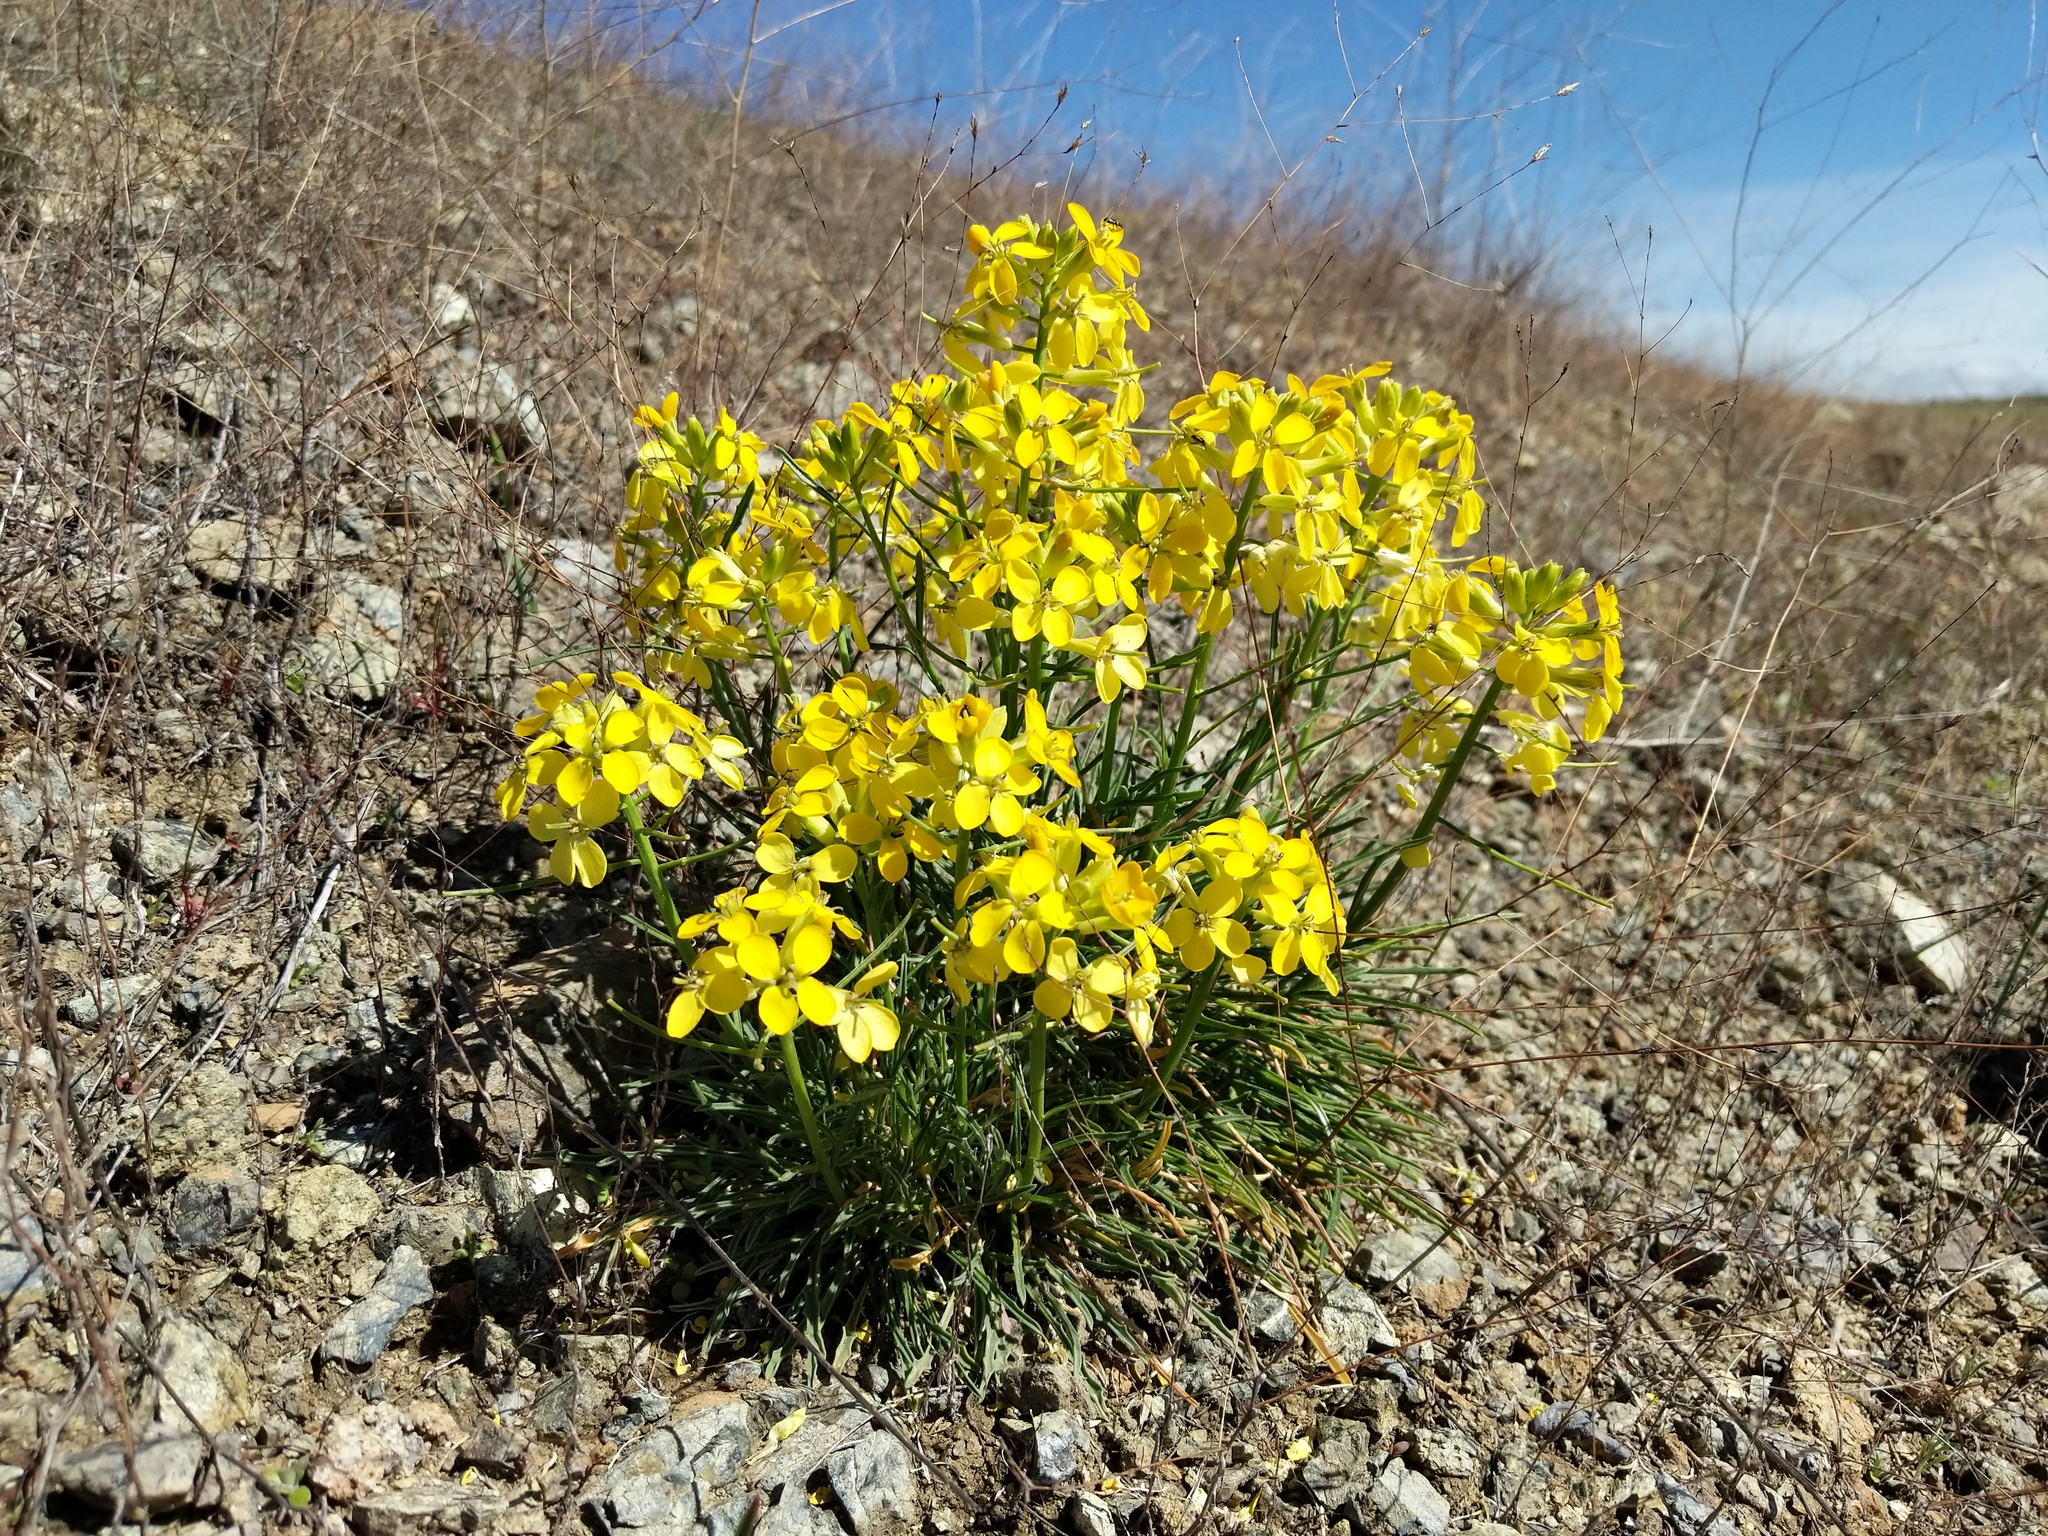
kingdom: Plantae
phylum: Tracheophyta
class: Magnoliopsida
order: Brassicales
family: Brassicaceae
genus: Erysimum
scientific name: Erysimum franciscanum
